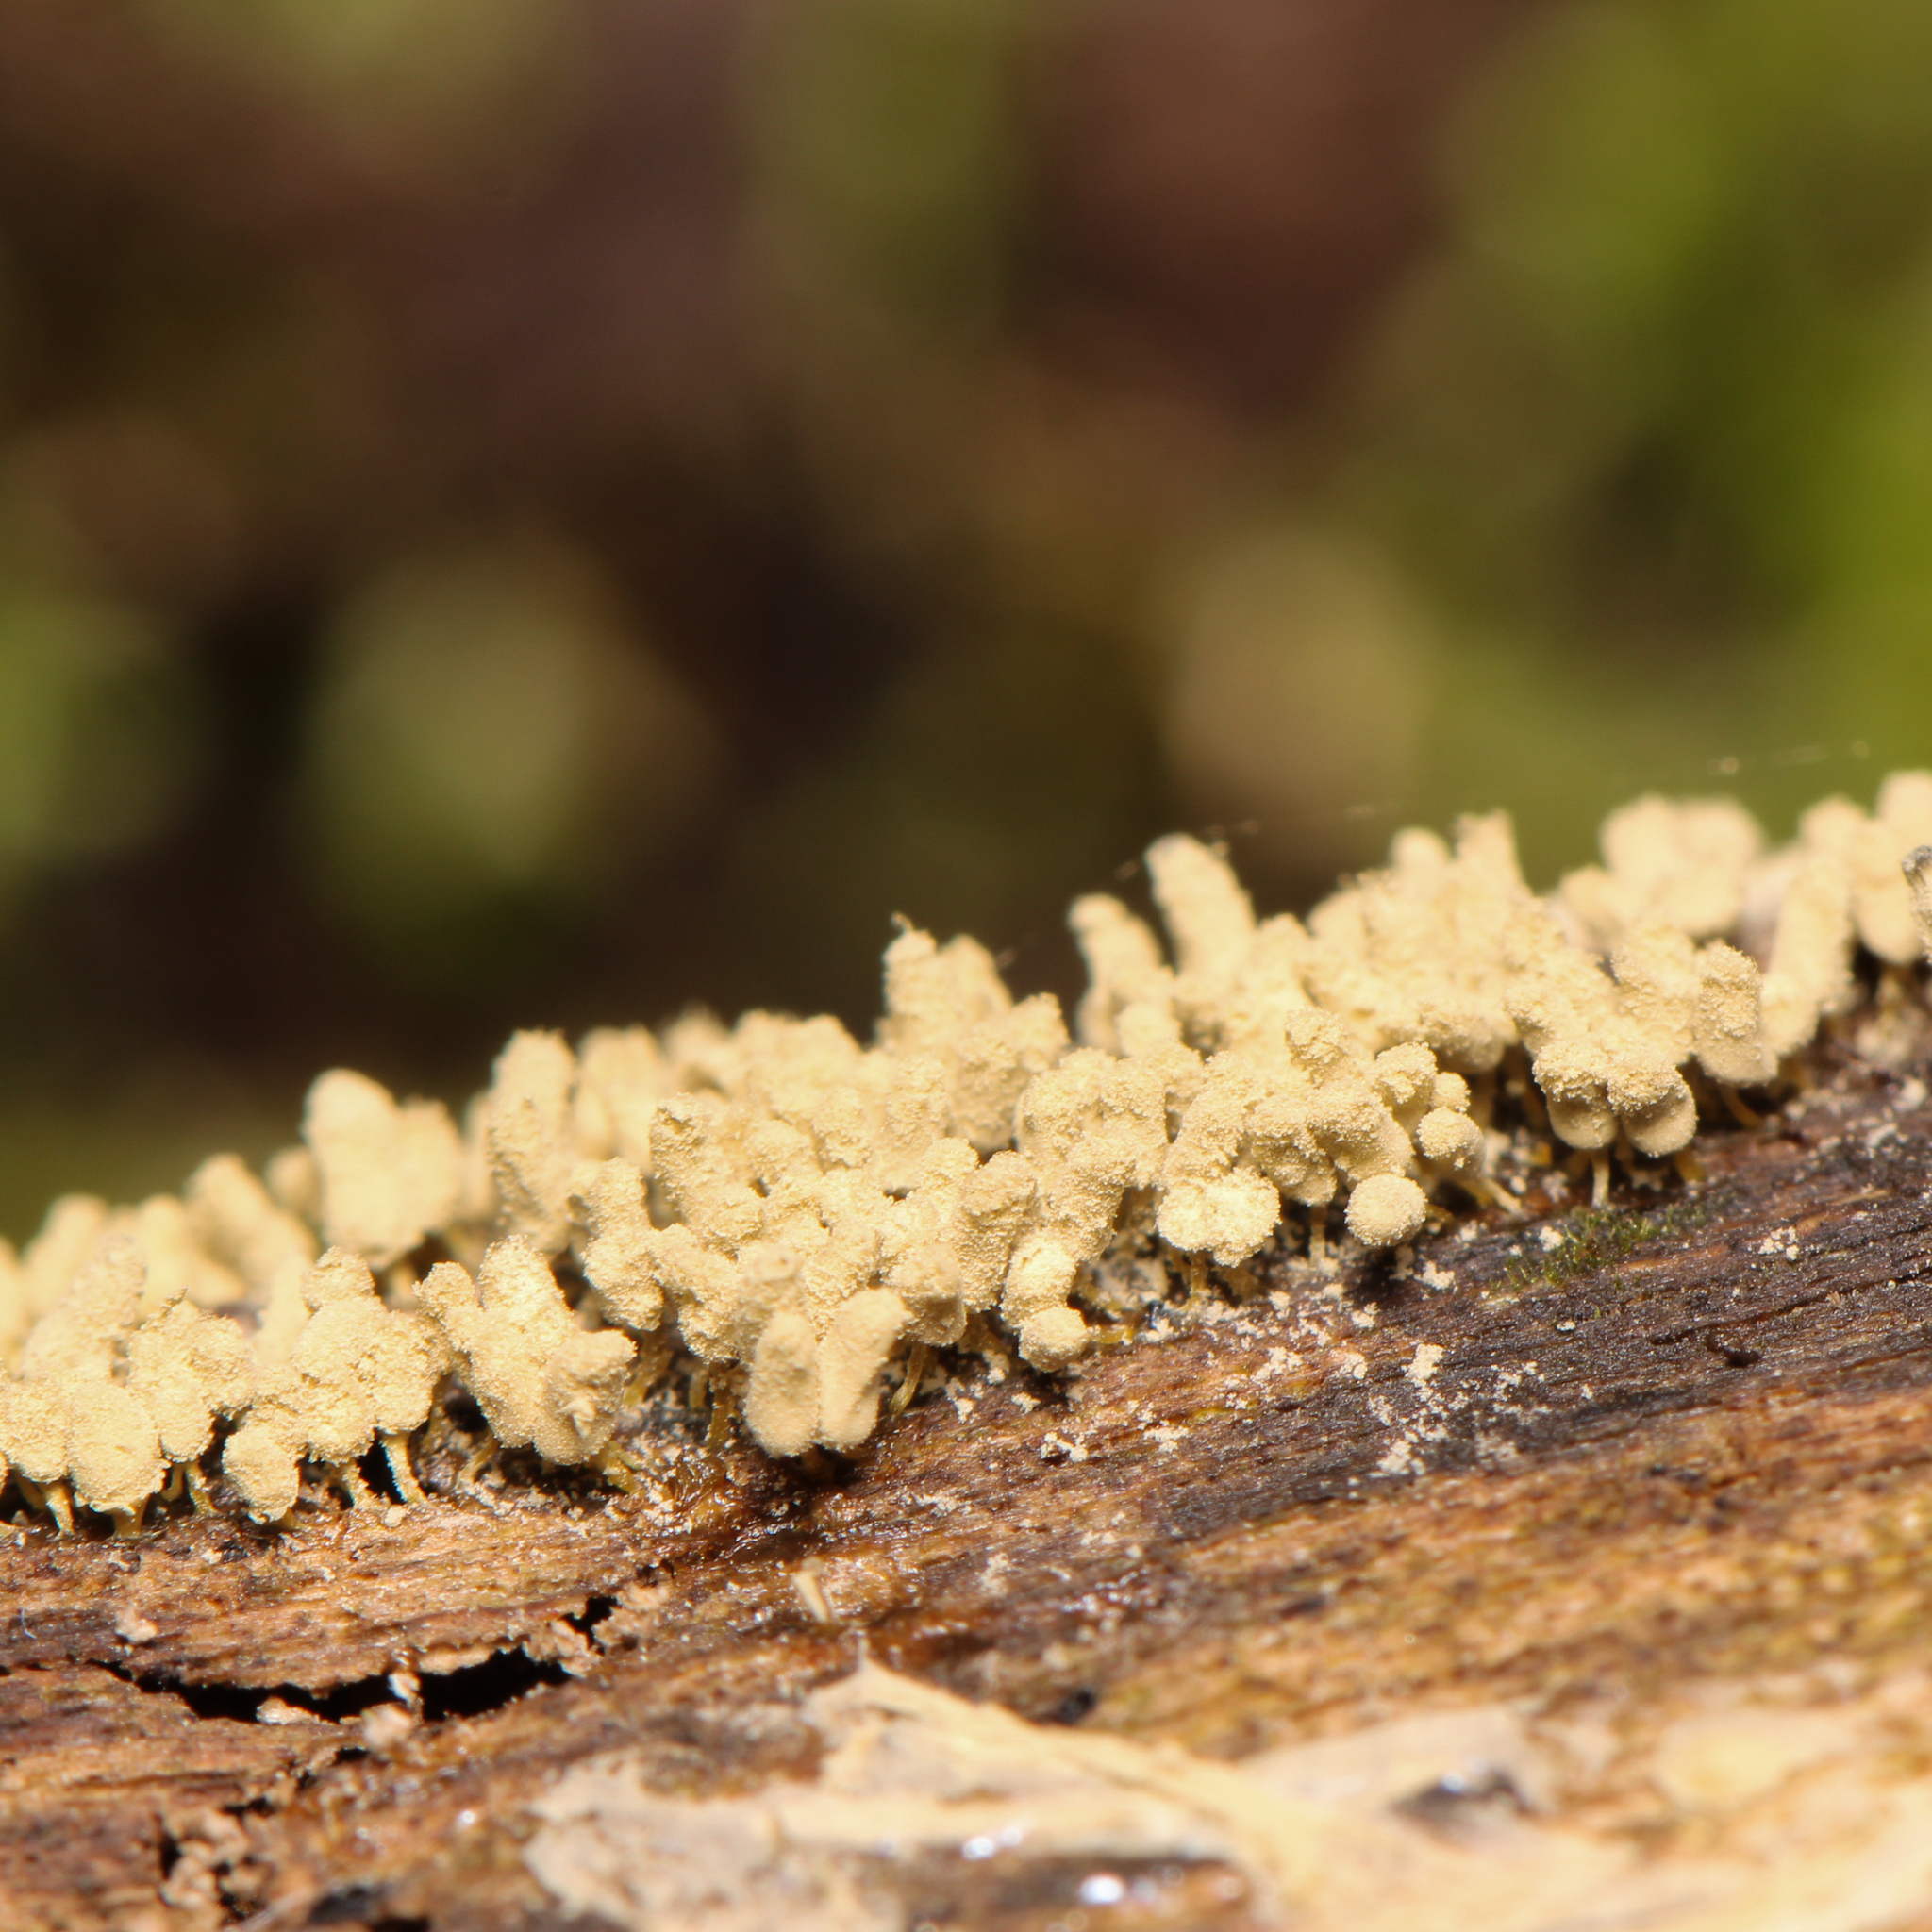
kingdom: Protozoa
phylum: Mycetozoa
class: Myxomycetes
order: Trichiales
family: Arcyriaceae
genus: Arcyria
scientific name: Arcyria cinerea
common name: White carnival candy slime mold
